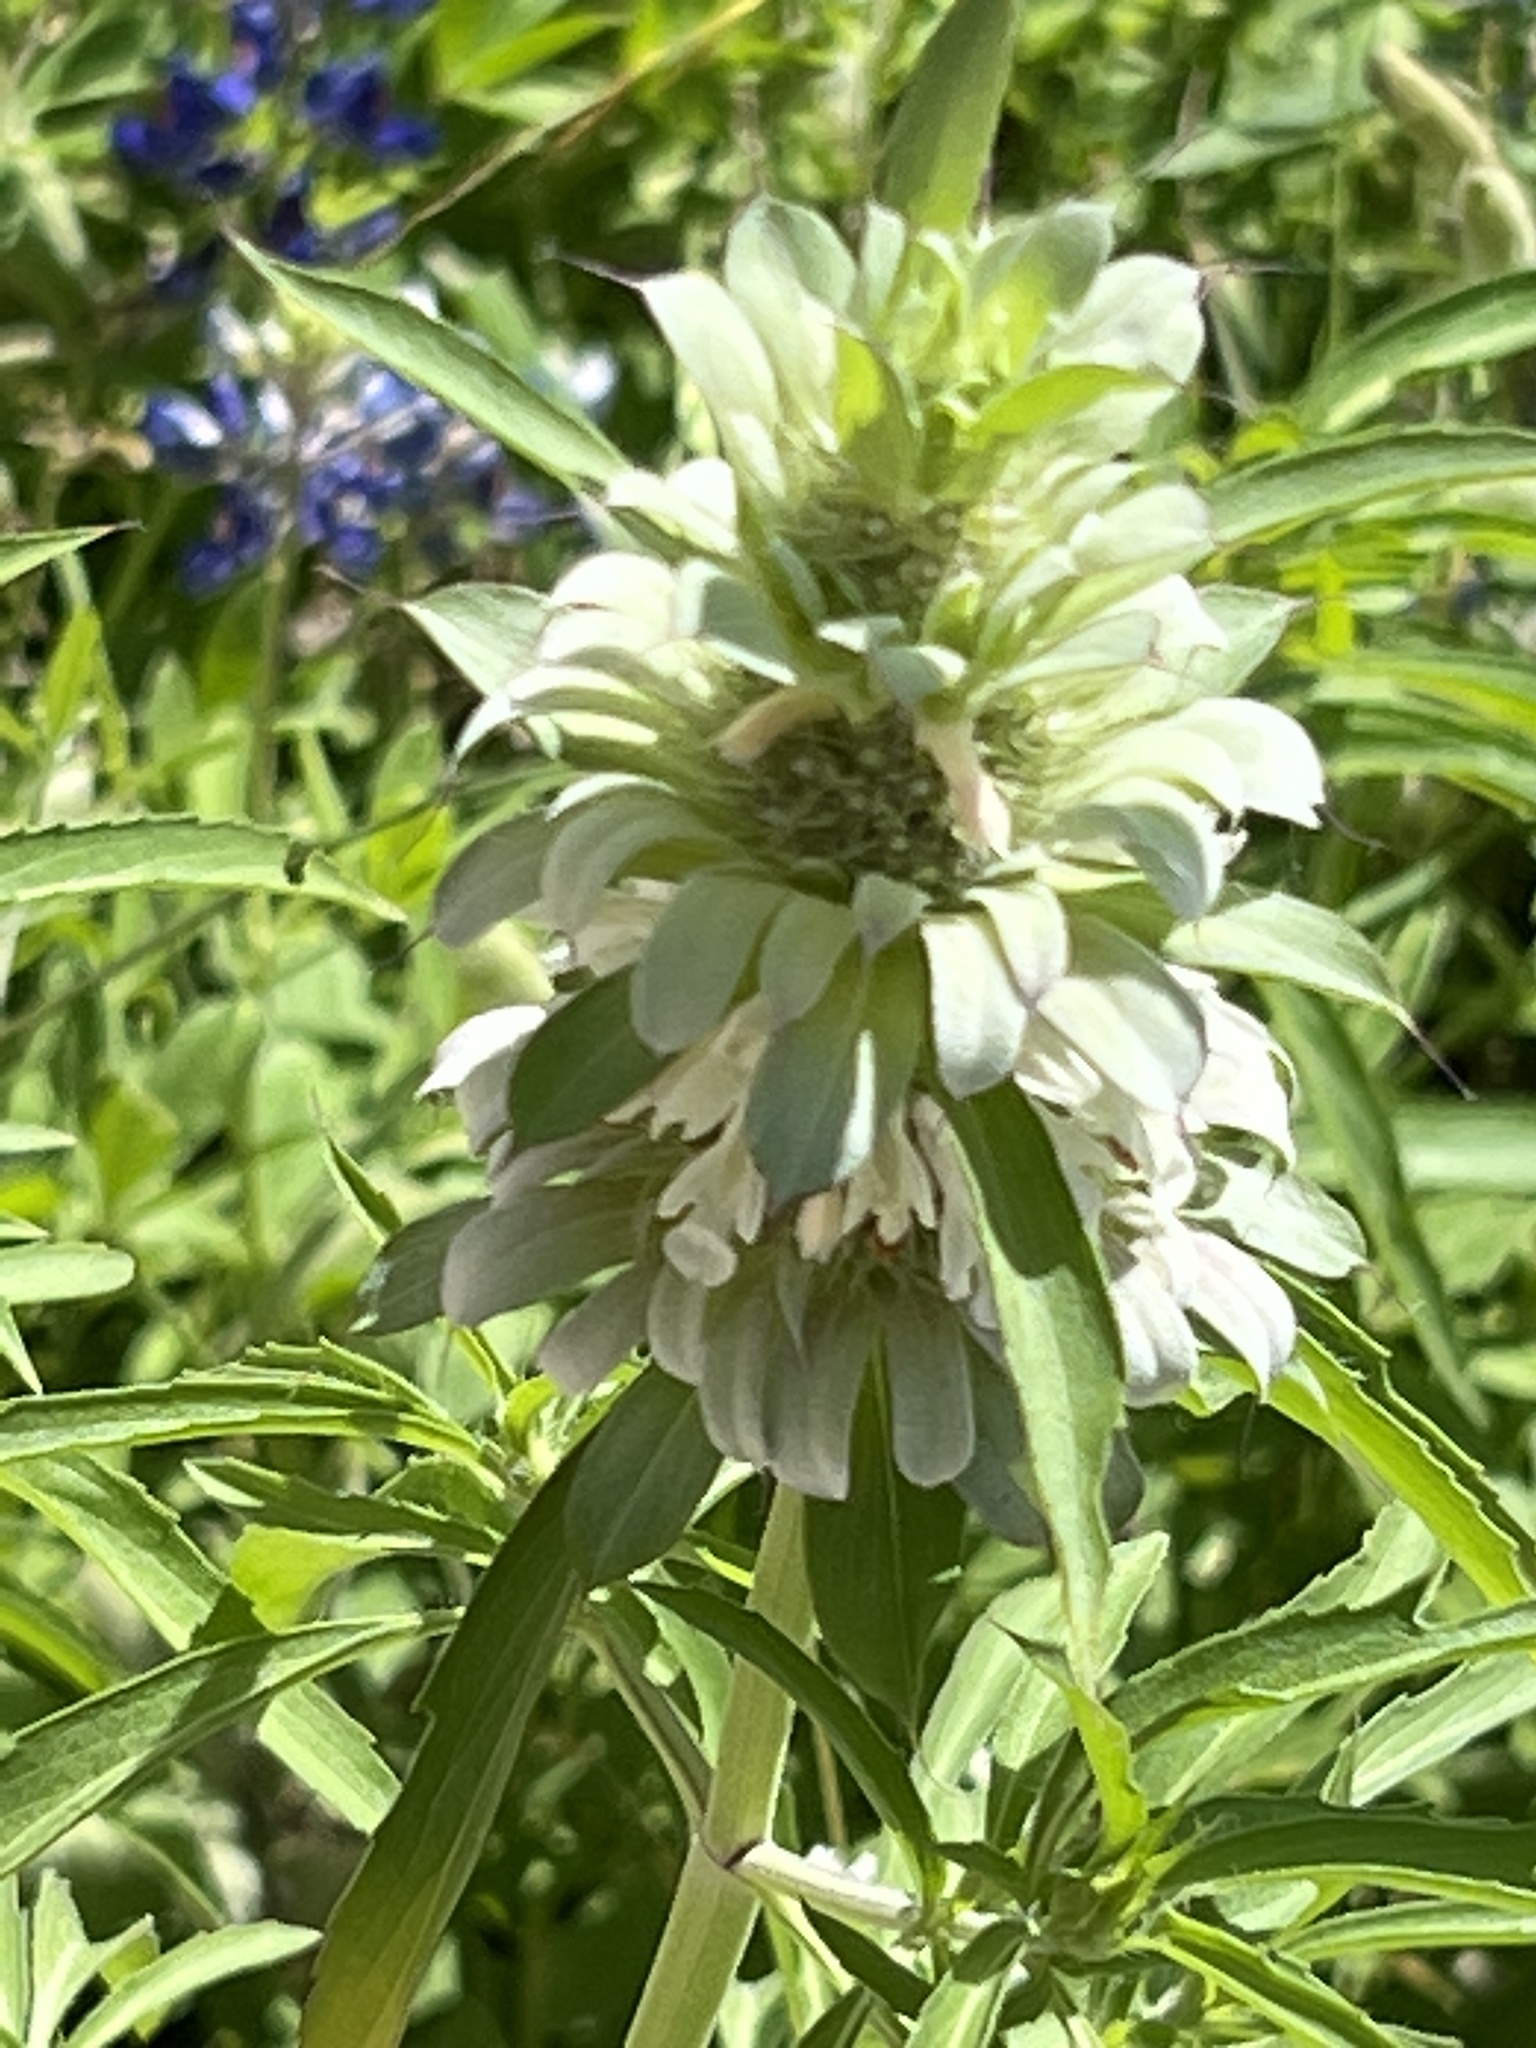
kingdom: Plantae
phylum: Tracheophyta
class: Magnoliopsida
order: Lamiales
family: Lamiaceae
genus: Monarda
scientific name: Monarda citriodora
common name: Lemon beebalm
